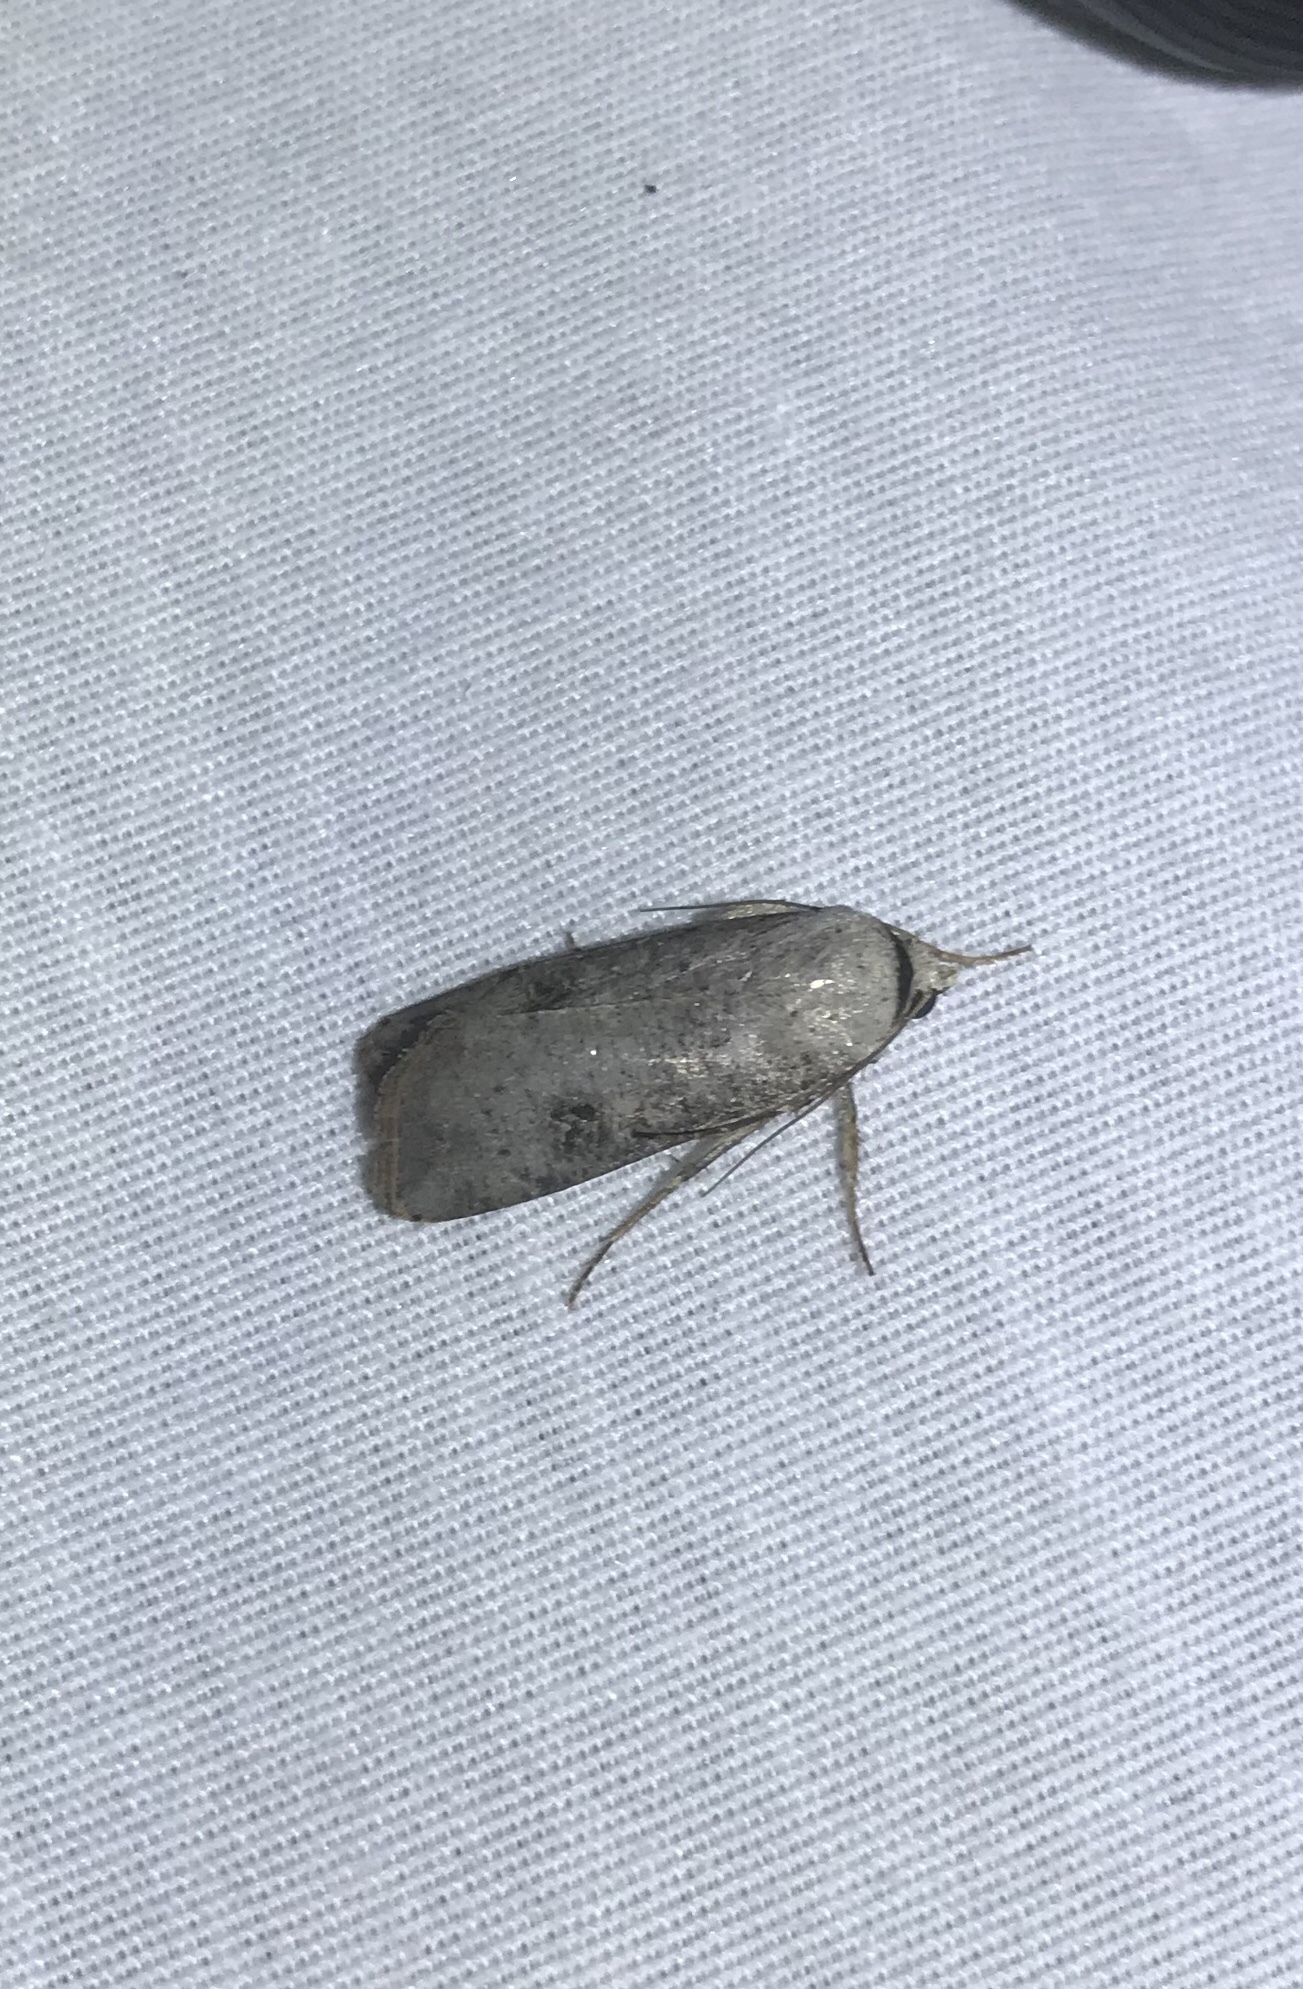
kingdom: Animalia
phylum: Arthropoda
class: Insecta
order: Lepidoptera
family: Noctuidae
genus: Anicla
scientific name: Anicla infecta
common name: Green cutworm
